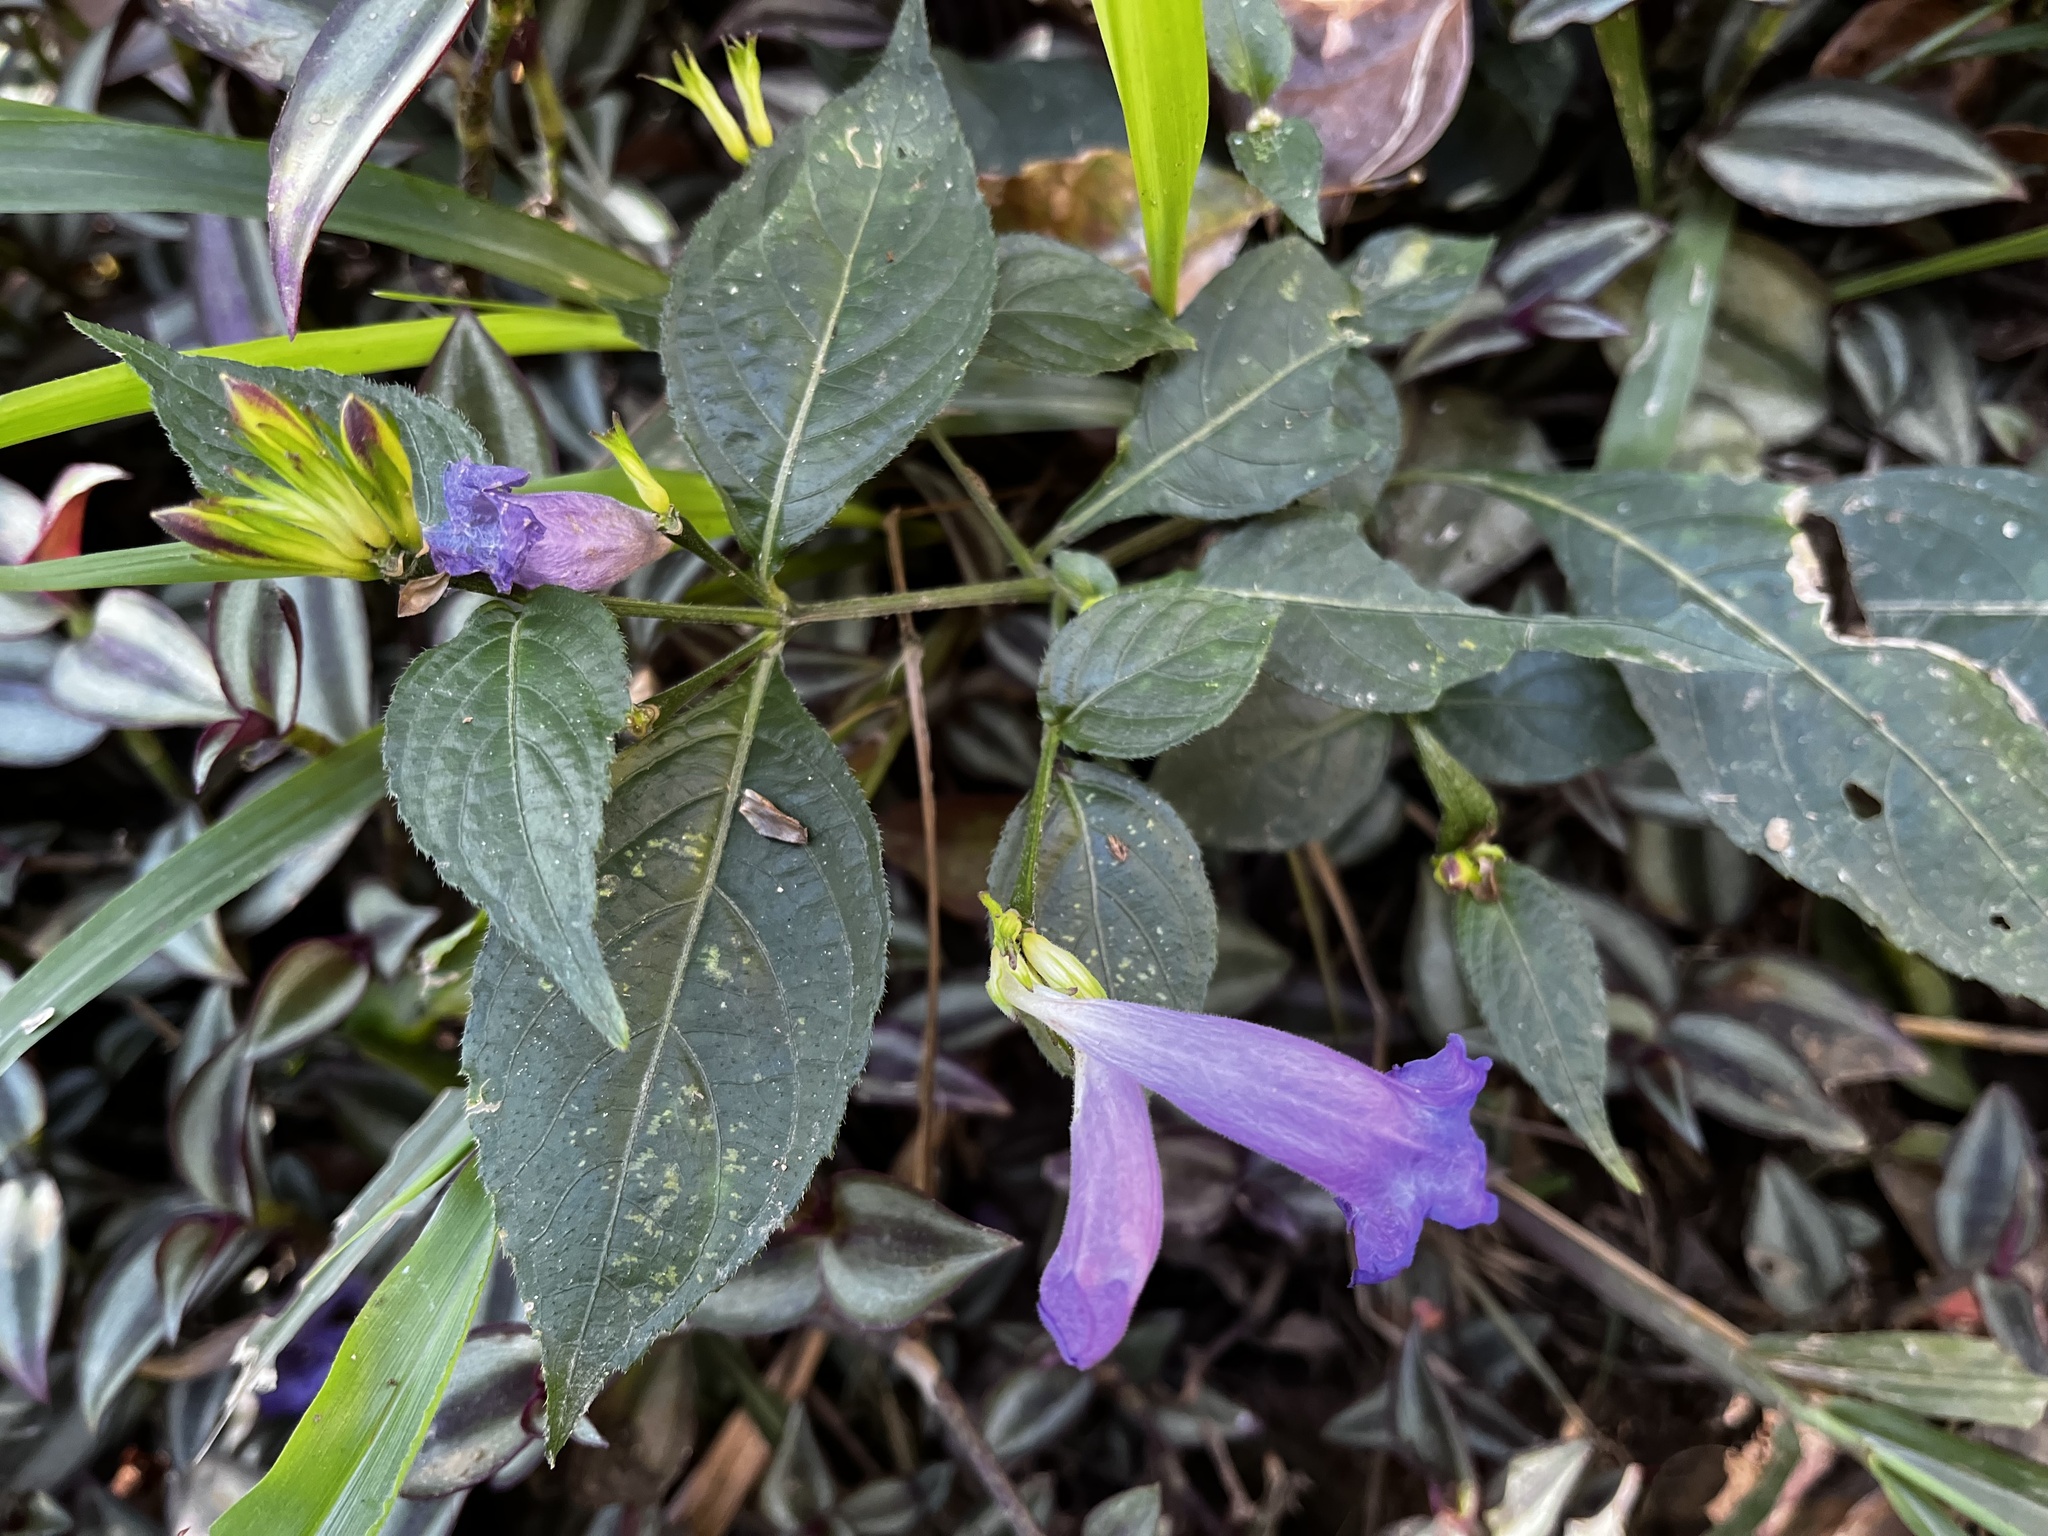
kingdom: Plantae
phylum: Tracheophyta
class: Magnoliopsida
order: Lamiales
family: Acanthaceae
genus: Strobilanthes
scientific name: Strobilanthes formosana
